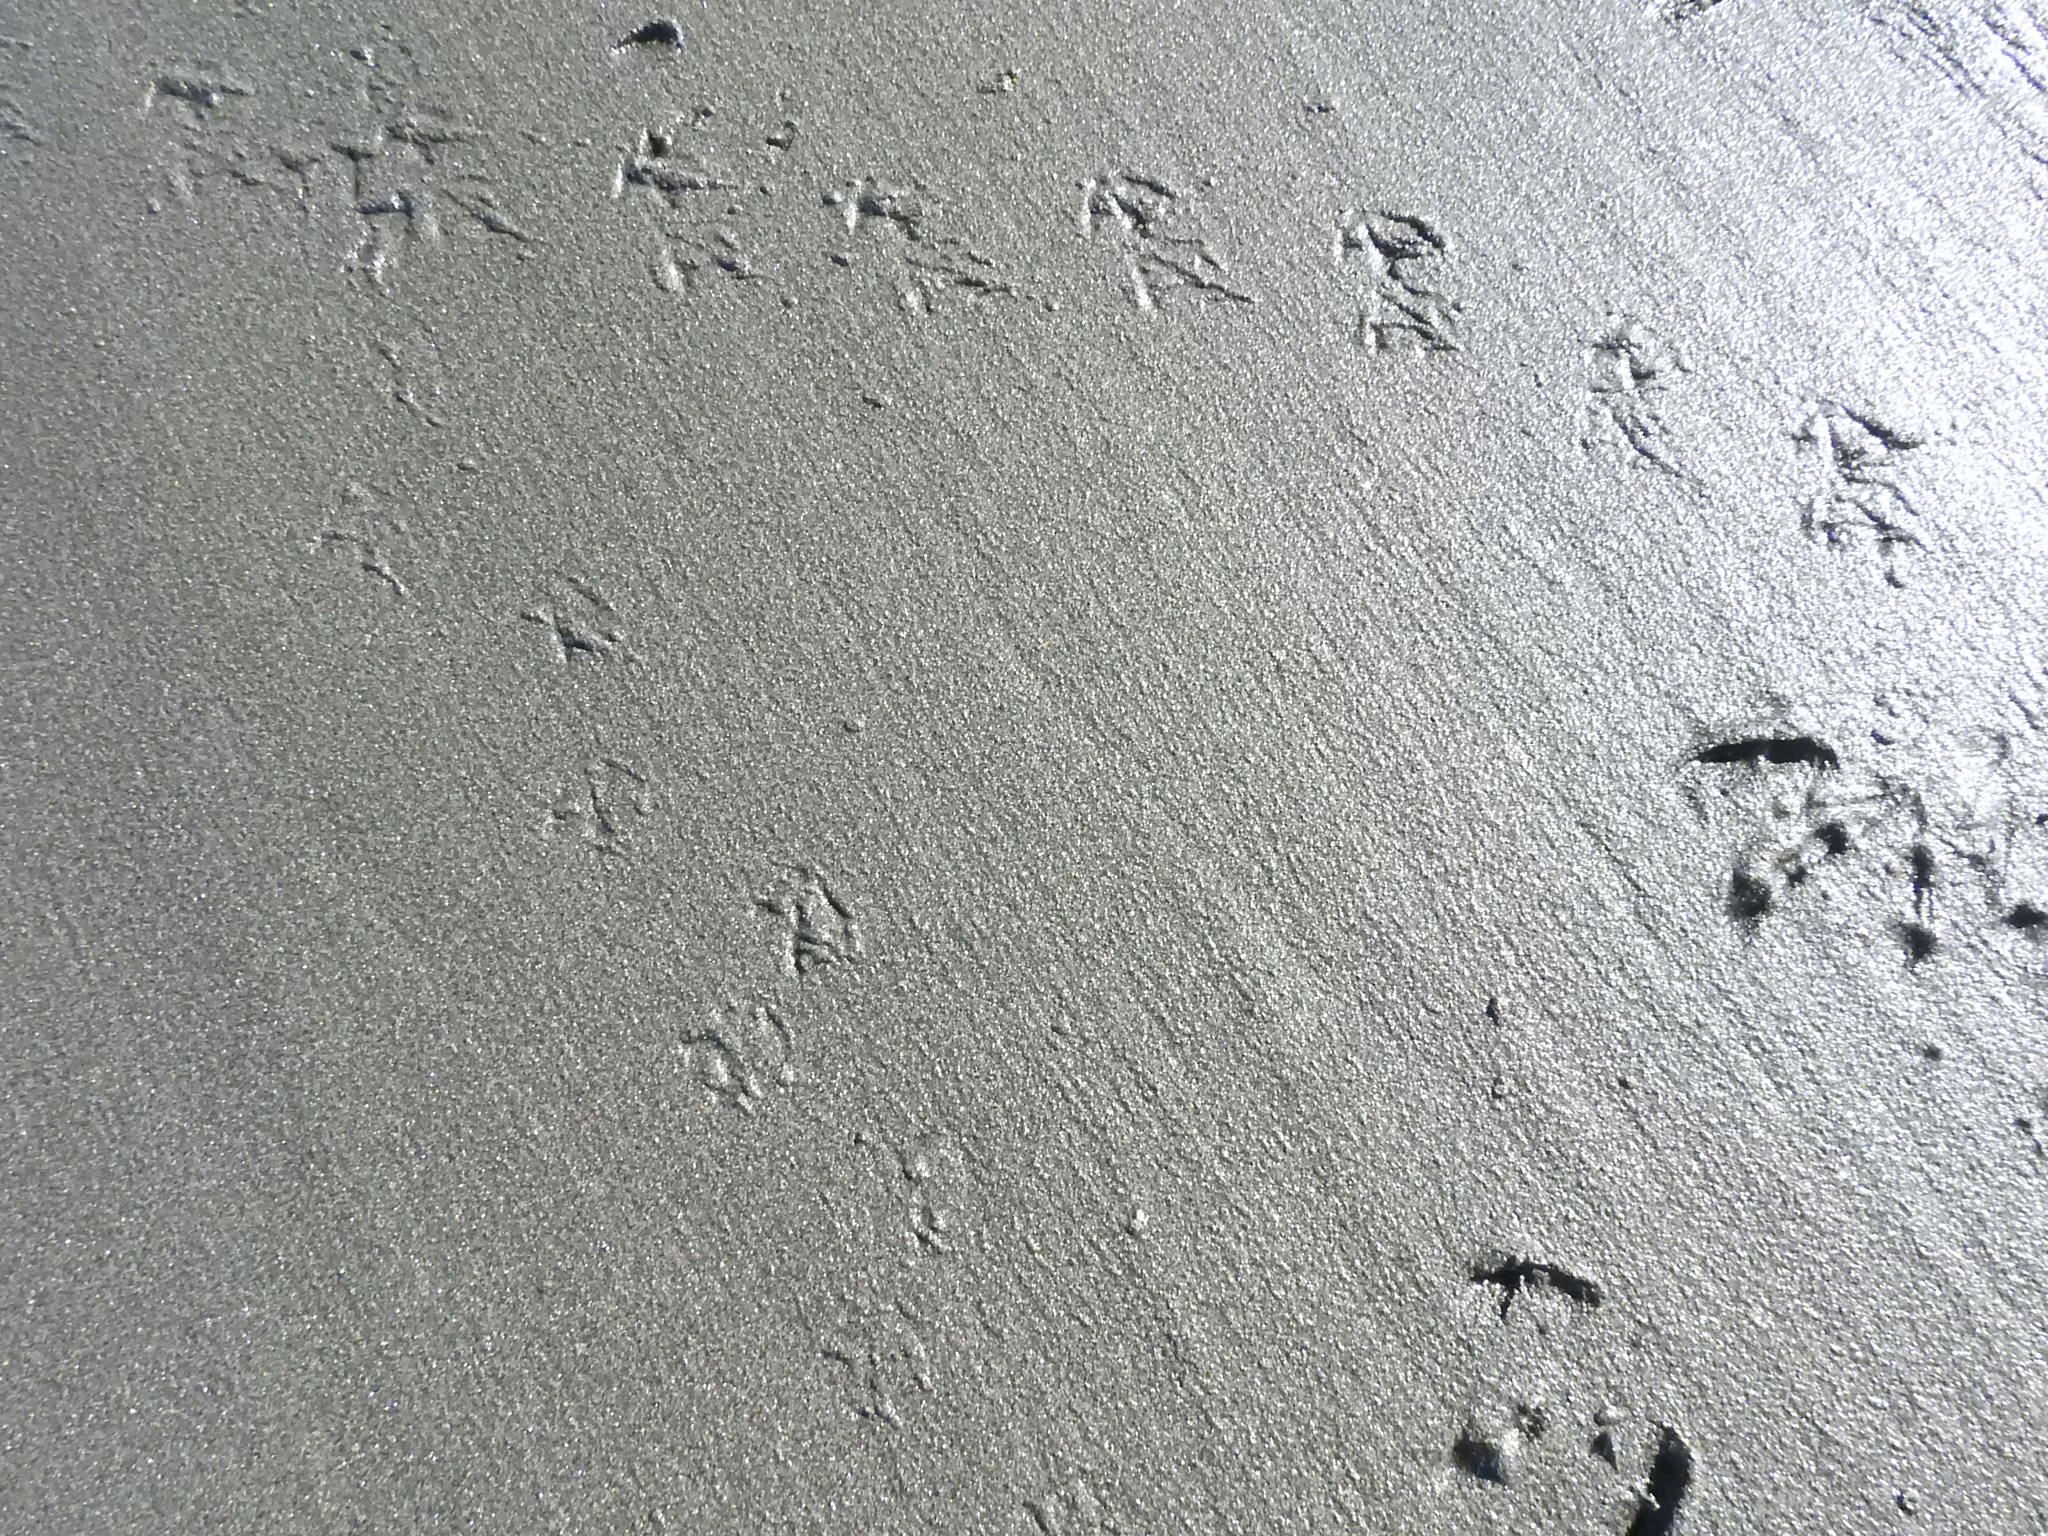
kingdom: Animalia
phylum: Chordata
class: Aves
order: Charadriiformes
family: Laridae
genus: Sterna
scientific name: Sterna striata
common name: White-fronted tern
